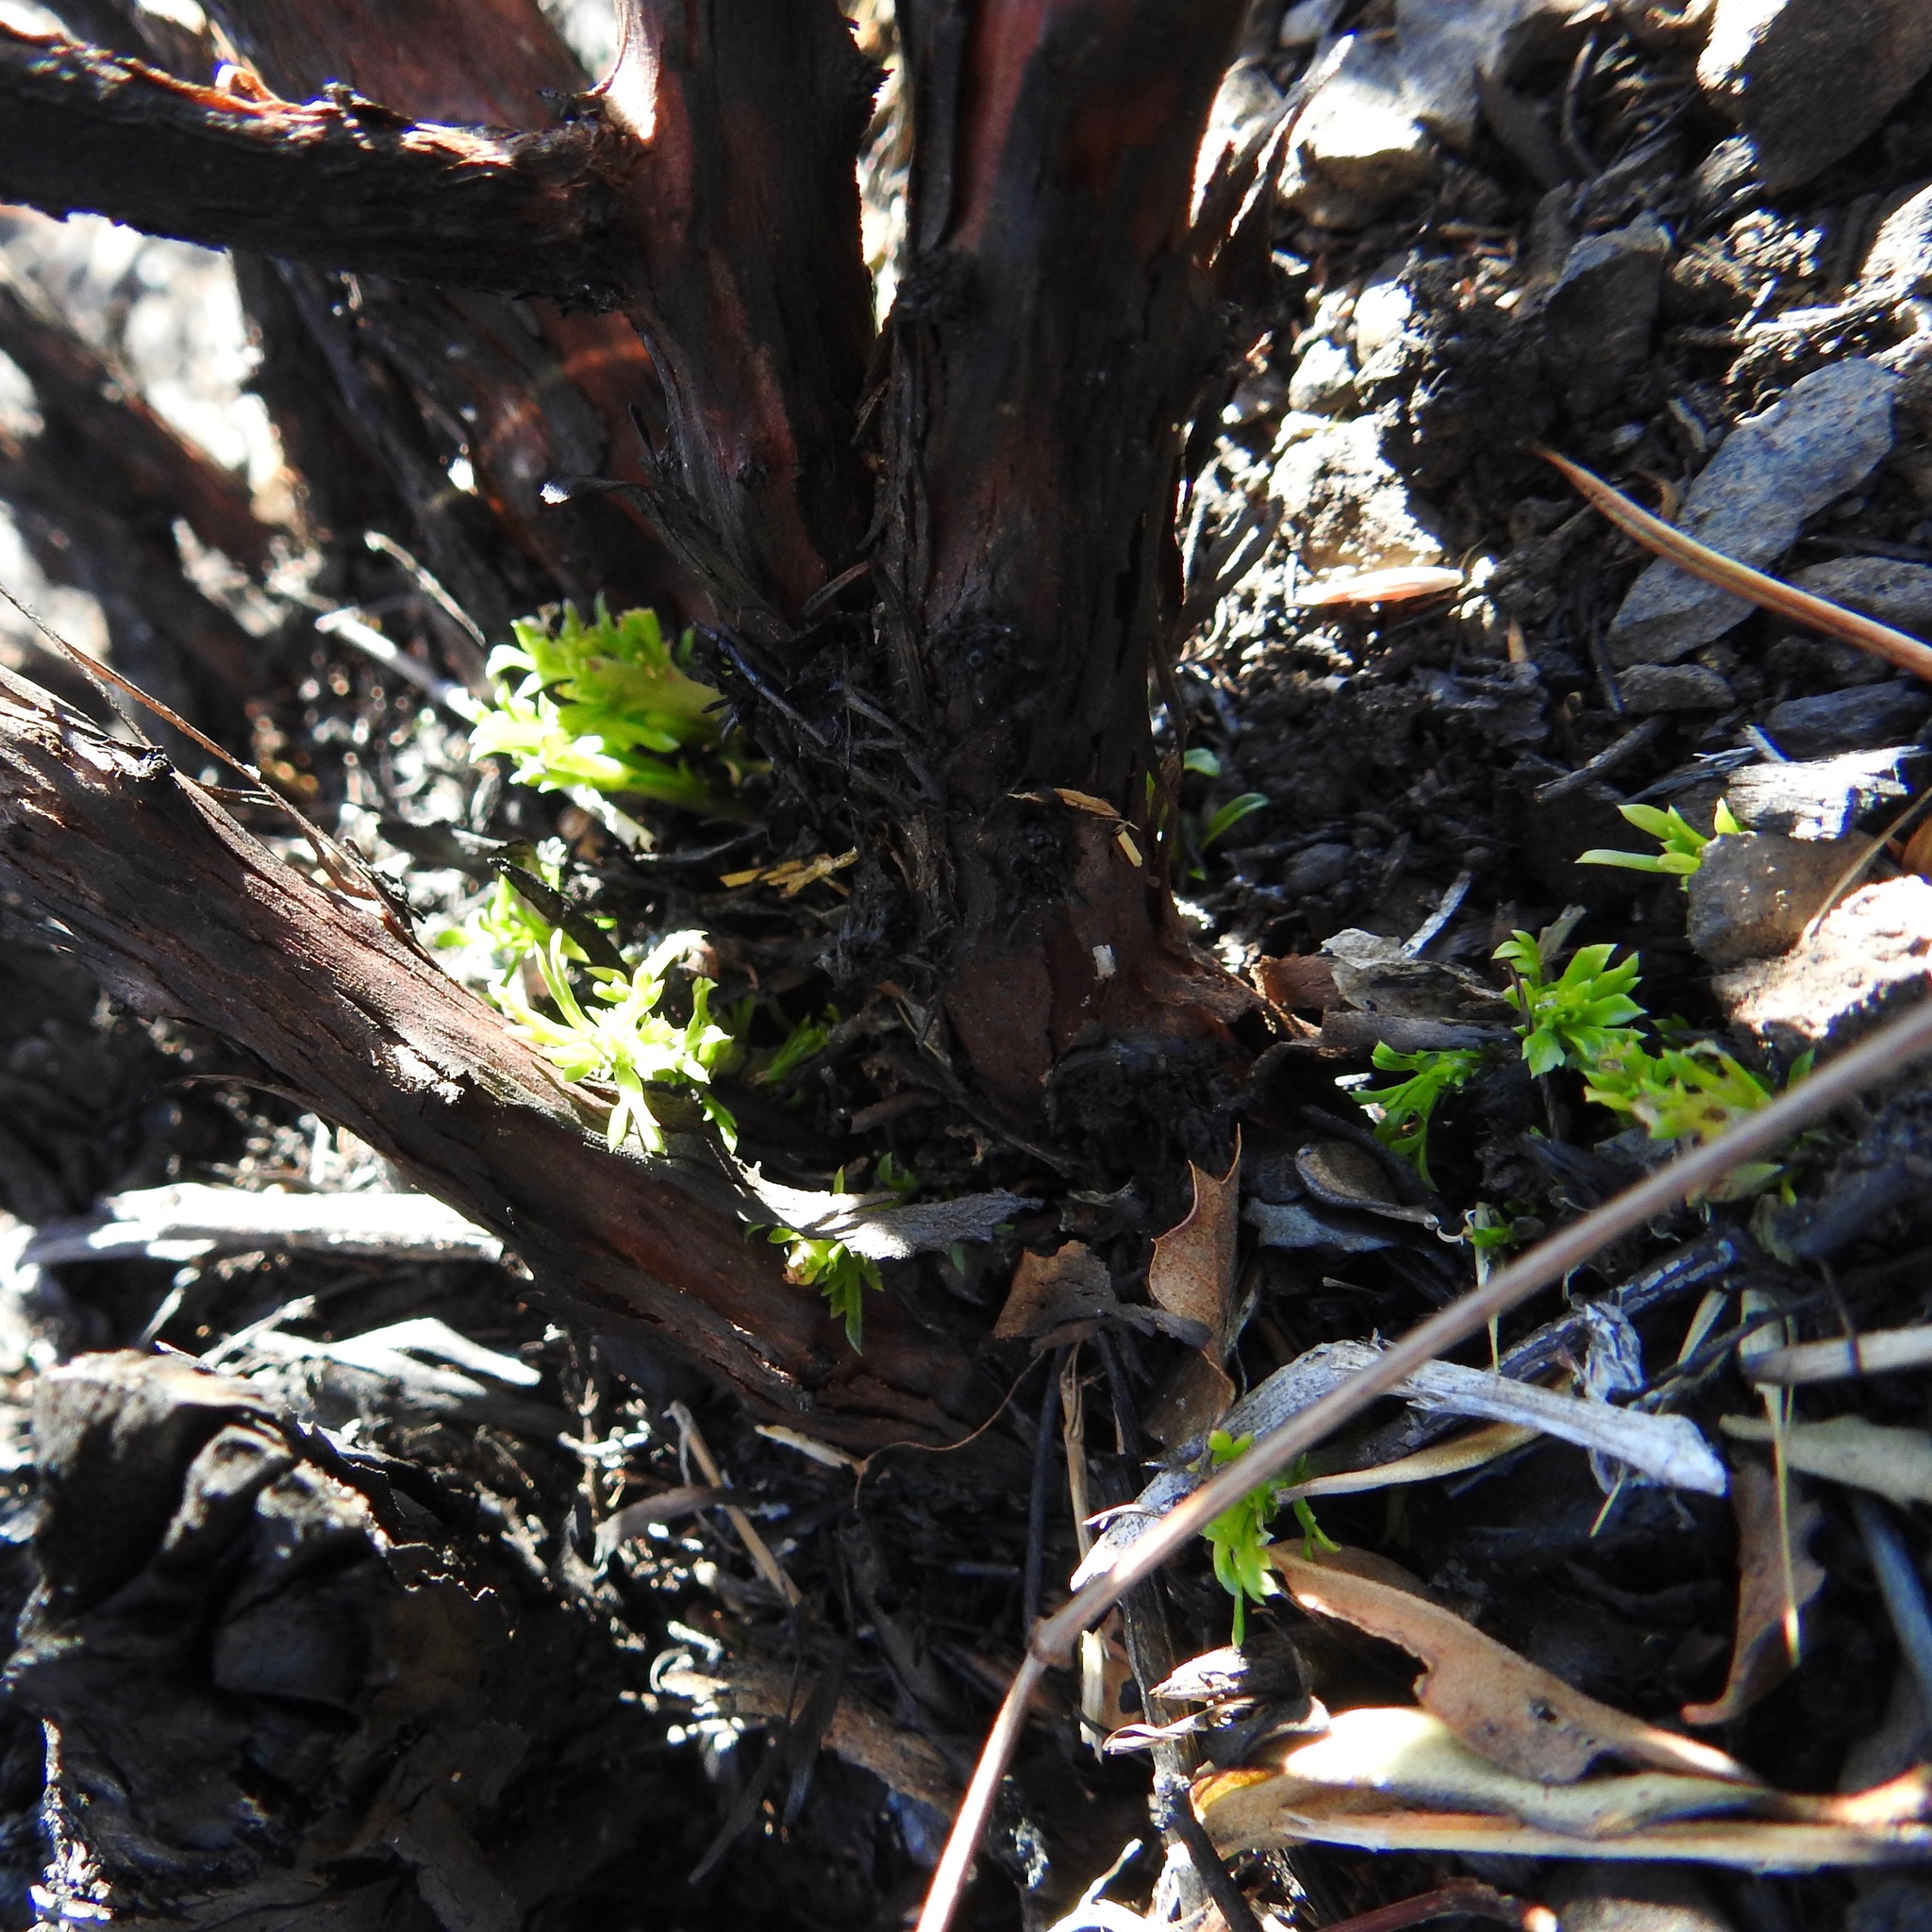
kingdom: Plantae
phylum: Tracheophyta
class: Magnoliopsida
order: Rosales
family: Rosaceae
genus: Adenostoma
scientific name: Adenostoma fasciculatum
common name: Chamise
